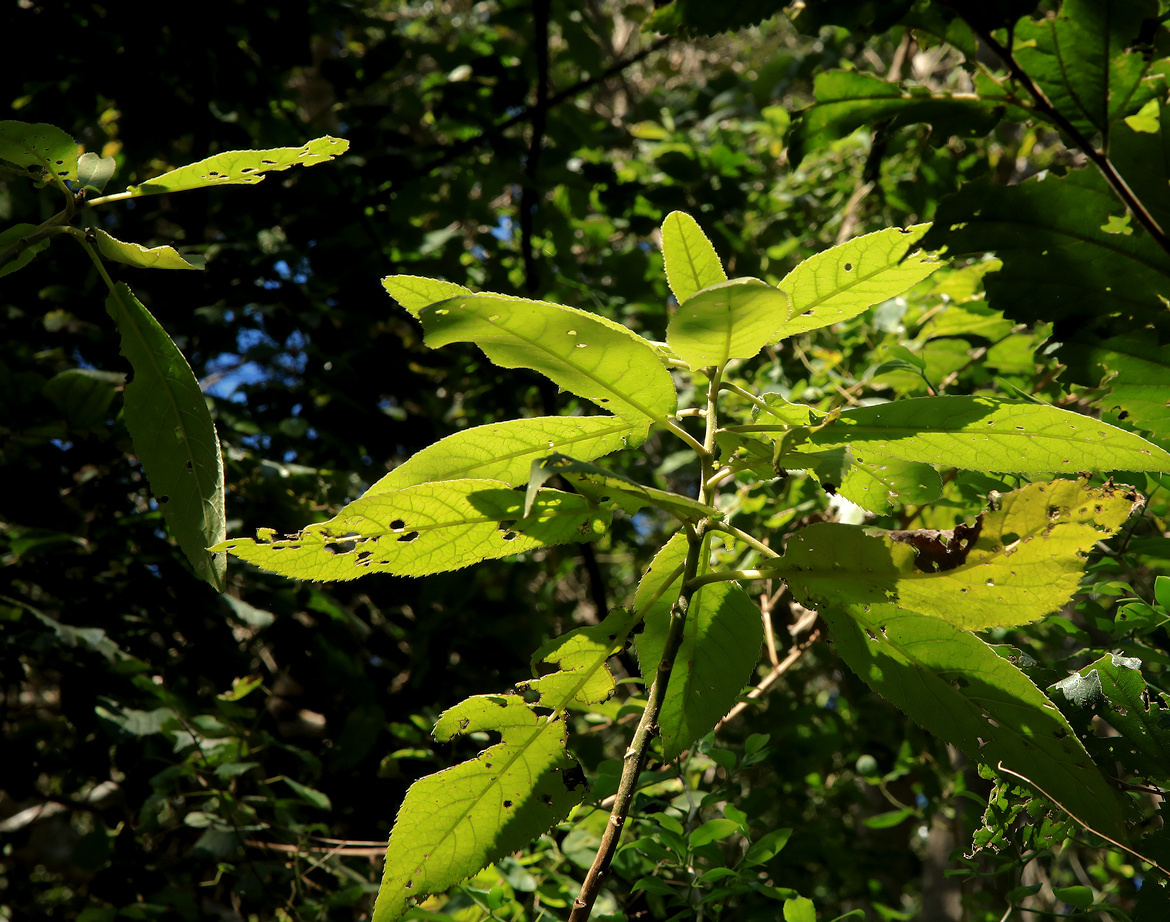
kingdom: Plantae
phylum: Tracheophyta
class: Magnoliopsida
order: Asterales
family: Asteraceae
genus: Gymnanthemum
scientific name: Gymnanthemum myrianthum
